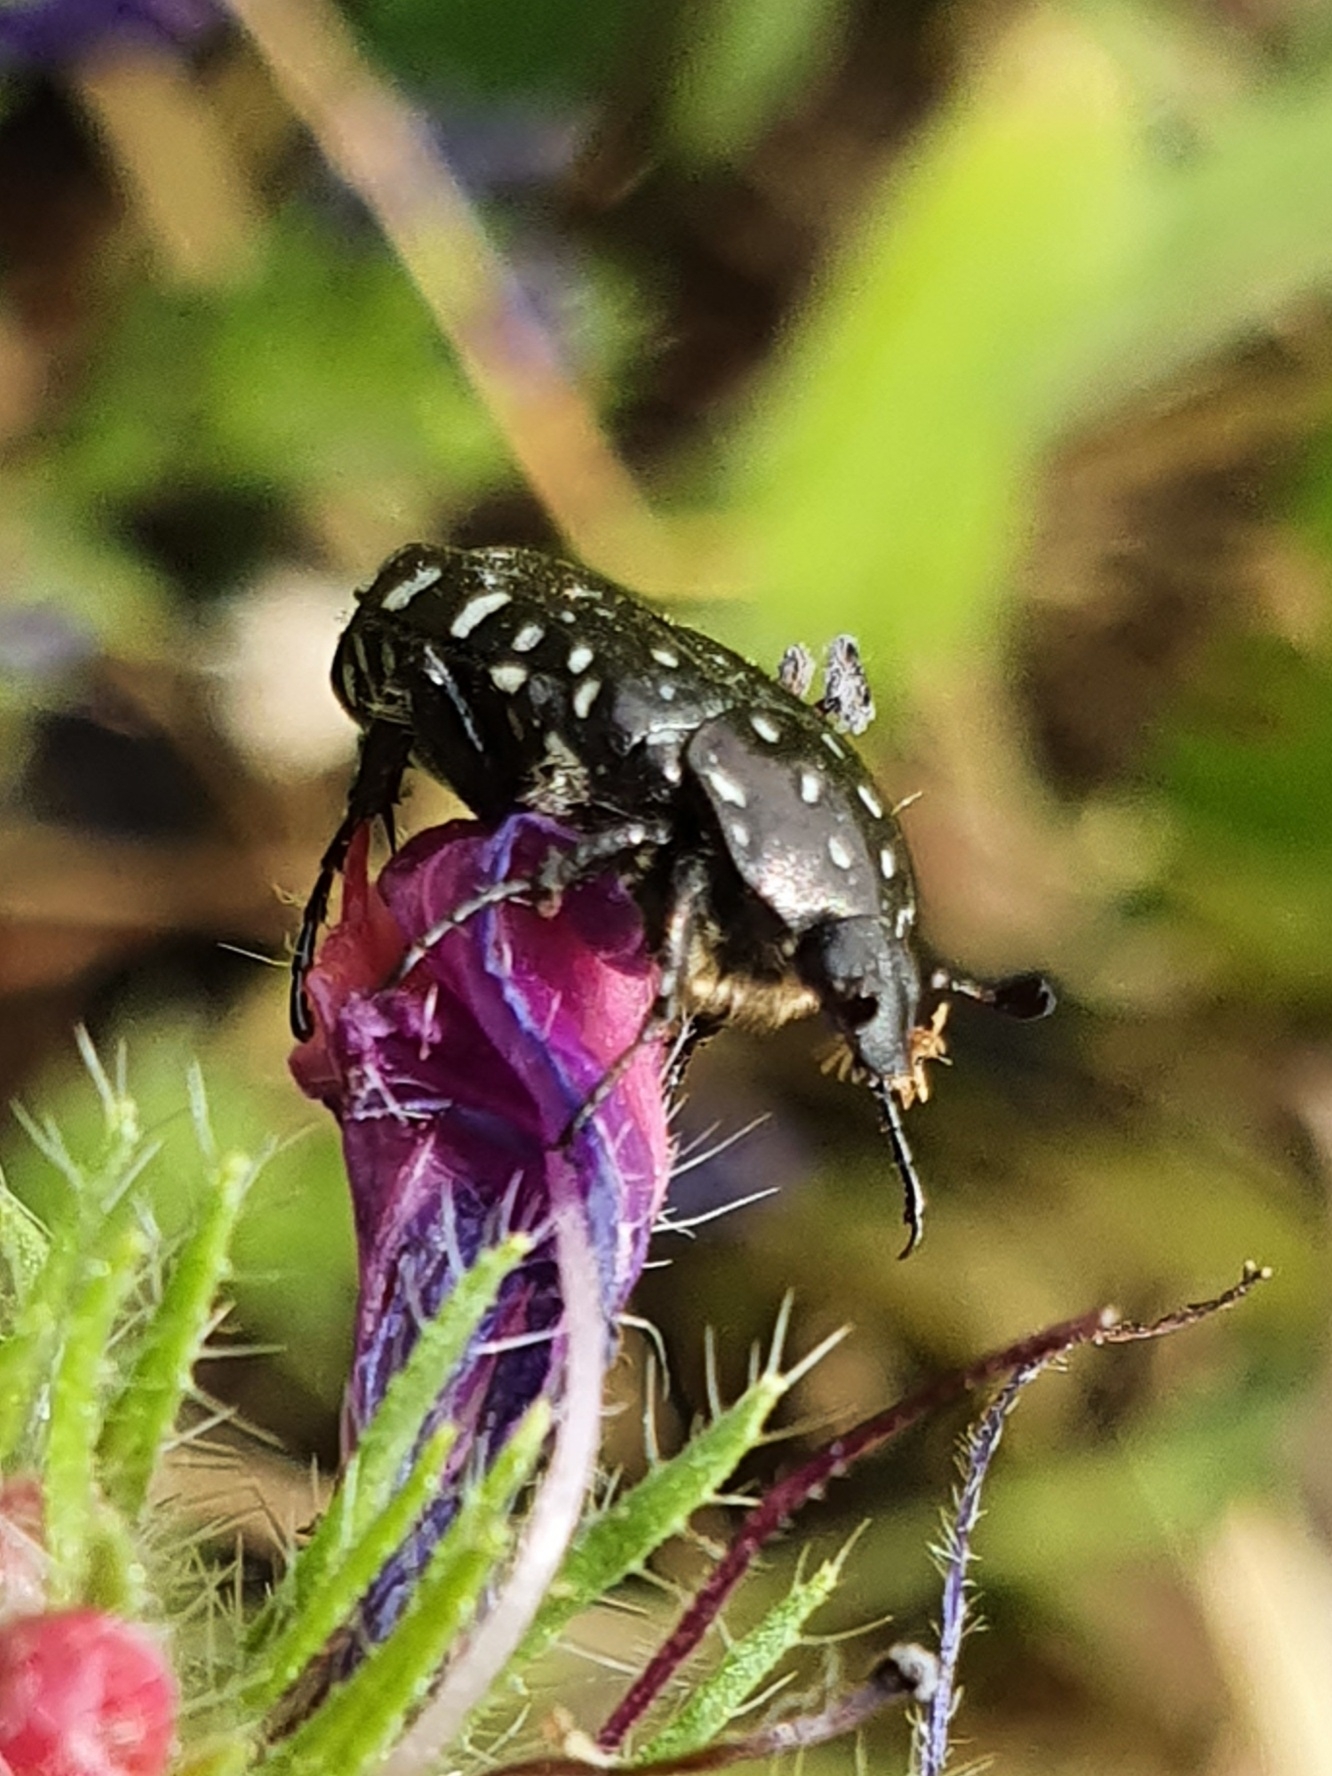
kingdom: Animalia
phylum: Arthropoda
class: Insecta
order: Coleoptera
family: Scarabaeidae
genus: Oxythyrea
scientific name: Oxythyrea funesta
